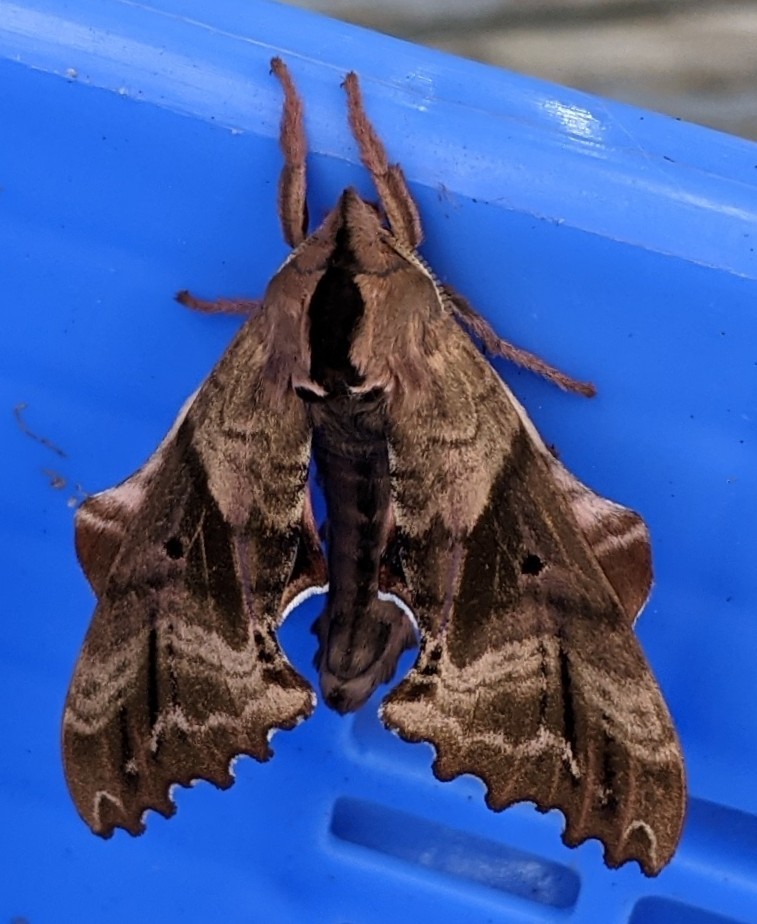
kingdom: Animalia
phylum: Arthropoda
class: Insecta
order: Lepidoptera
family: Sphingidae
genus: Paonias
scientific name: Paonias excaecata
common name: Blind-eyed sphinx
